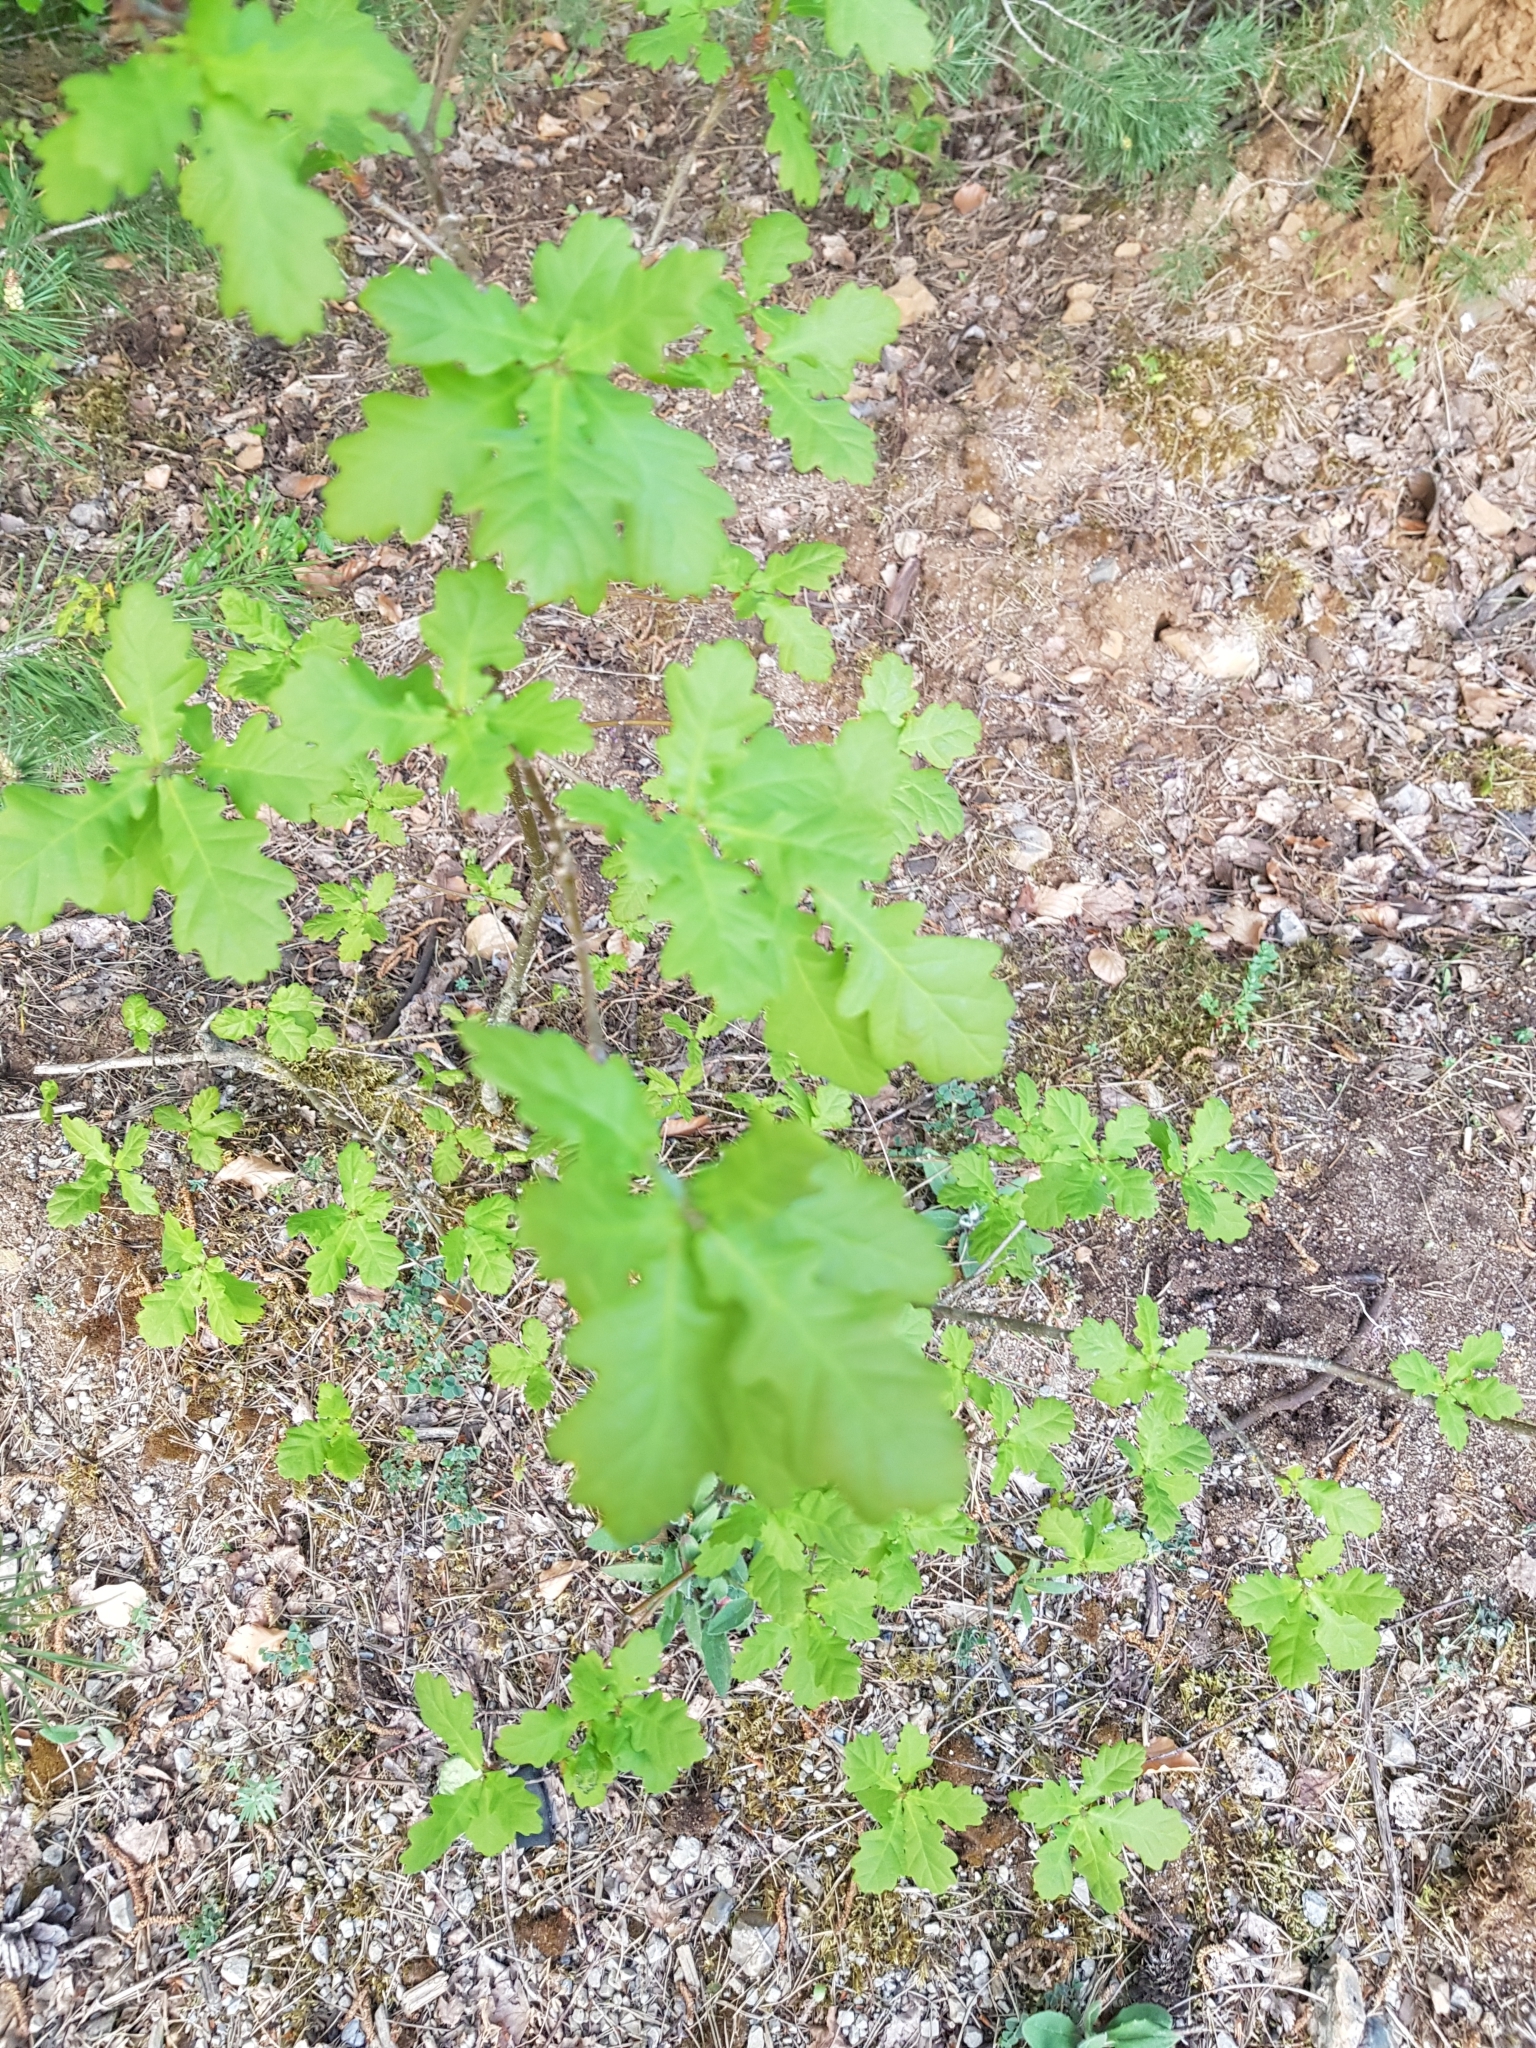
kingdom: Plantae
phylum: Tracheophyta
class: Magnoliopsida
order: Fagales
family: Fagaceae
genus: Quercus
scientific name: Quercus robur
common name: Pedunculate oak
